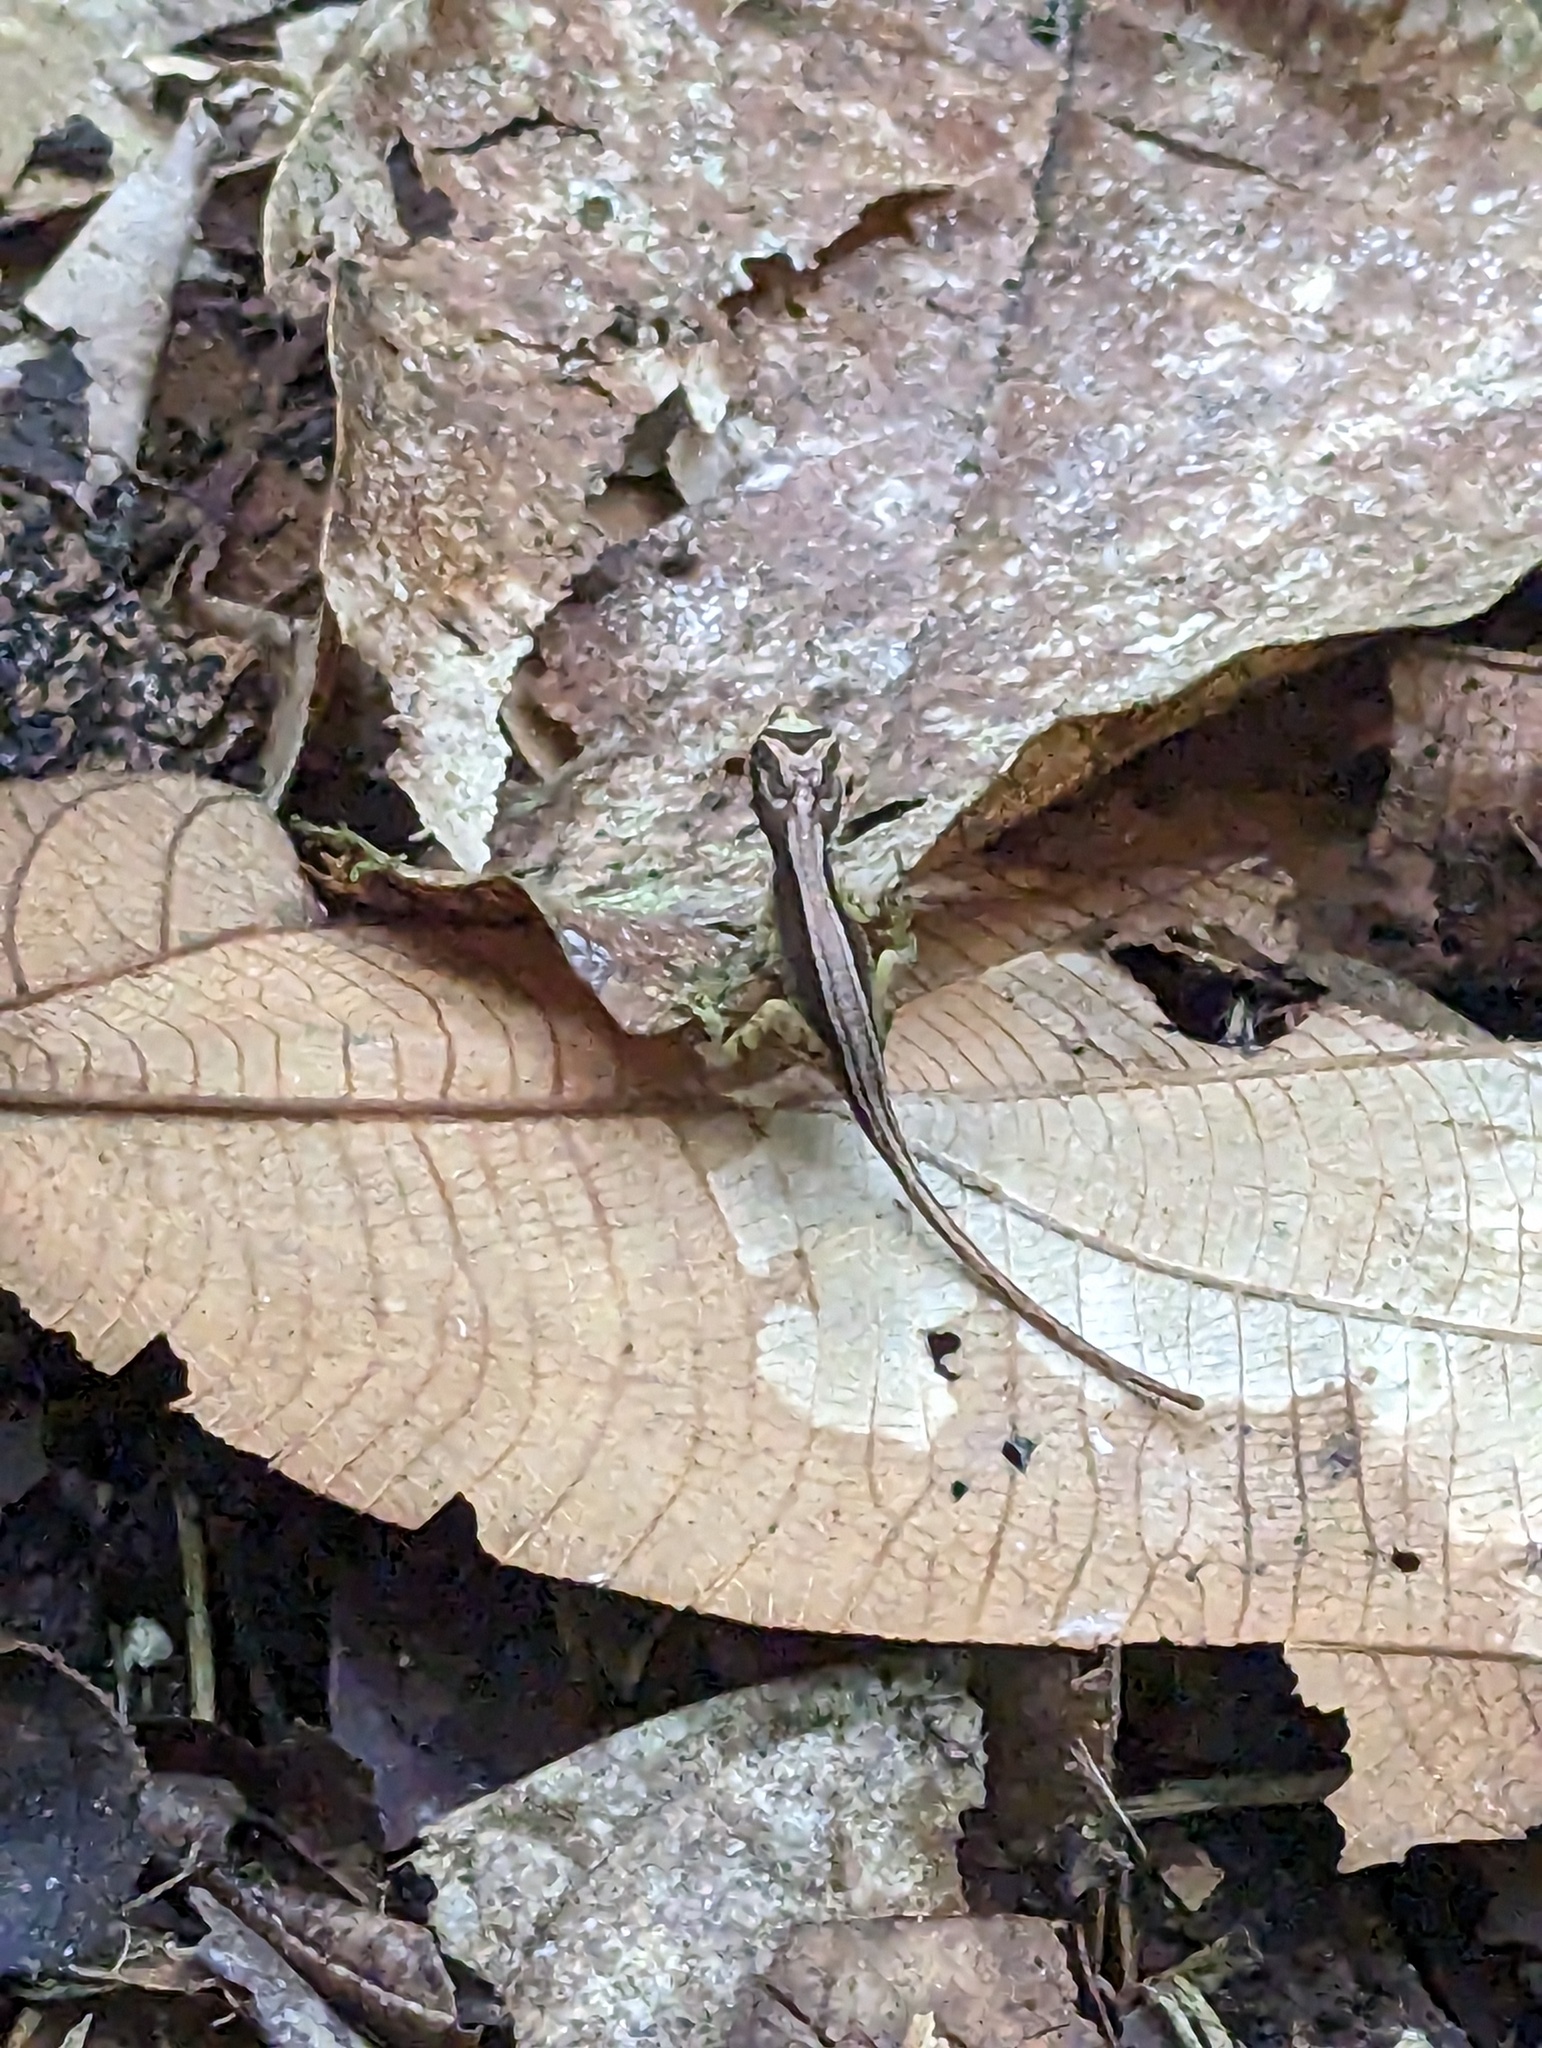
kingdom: Animalia
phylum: Chordata
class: Squamata
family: Dactyloidae
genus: Anolis
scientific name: Anolis humilis
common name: Humble anole
